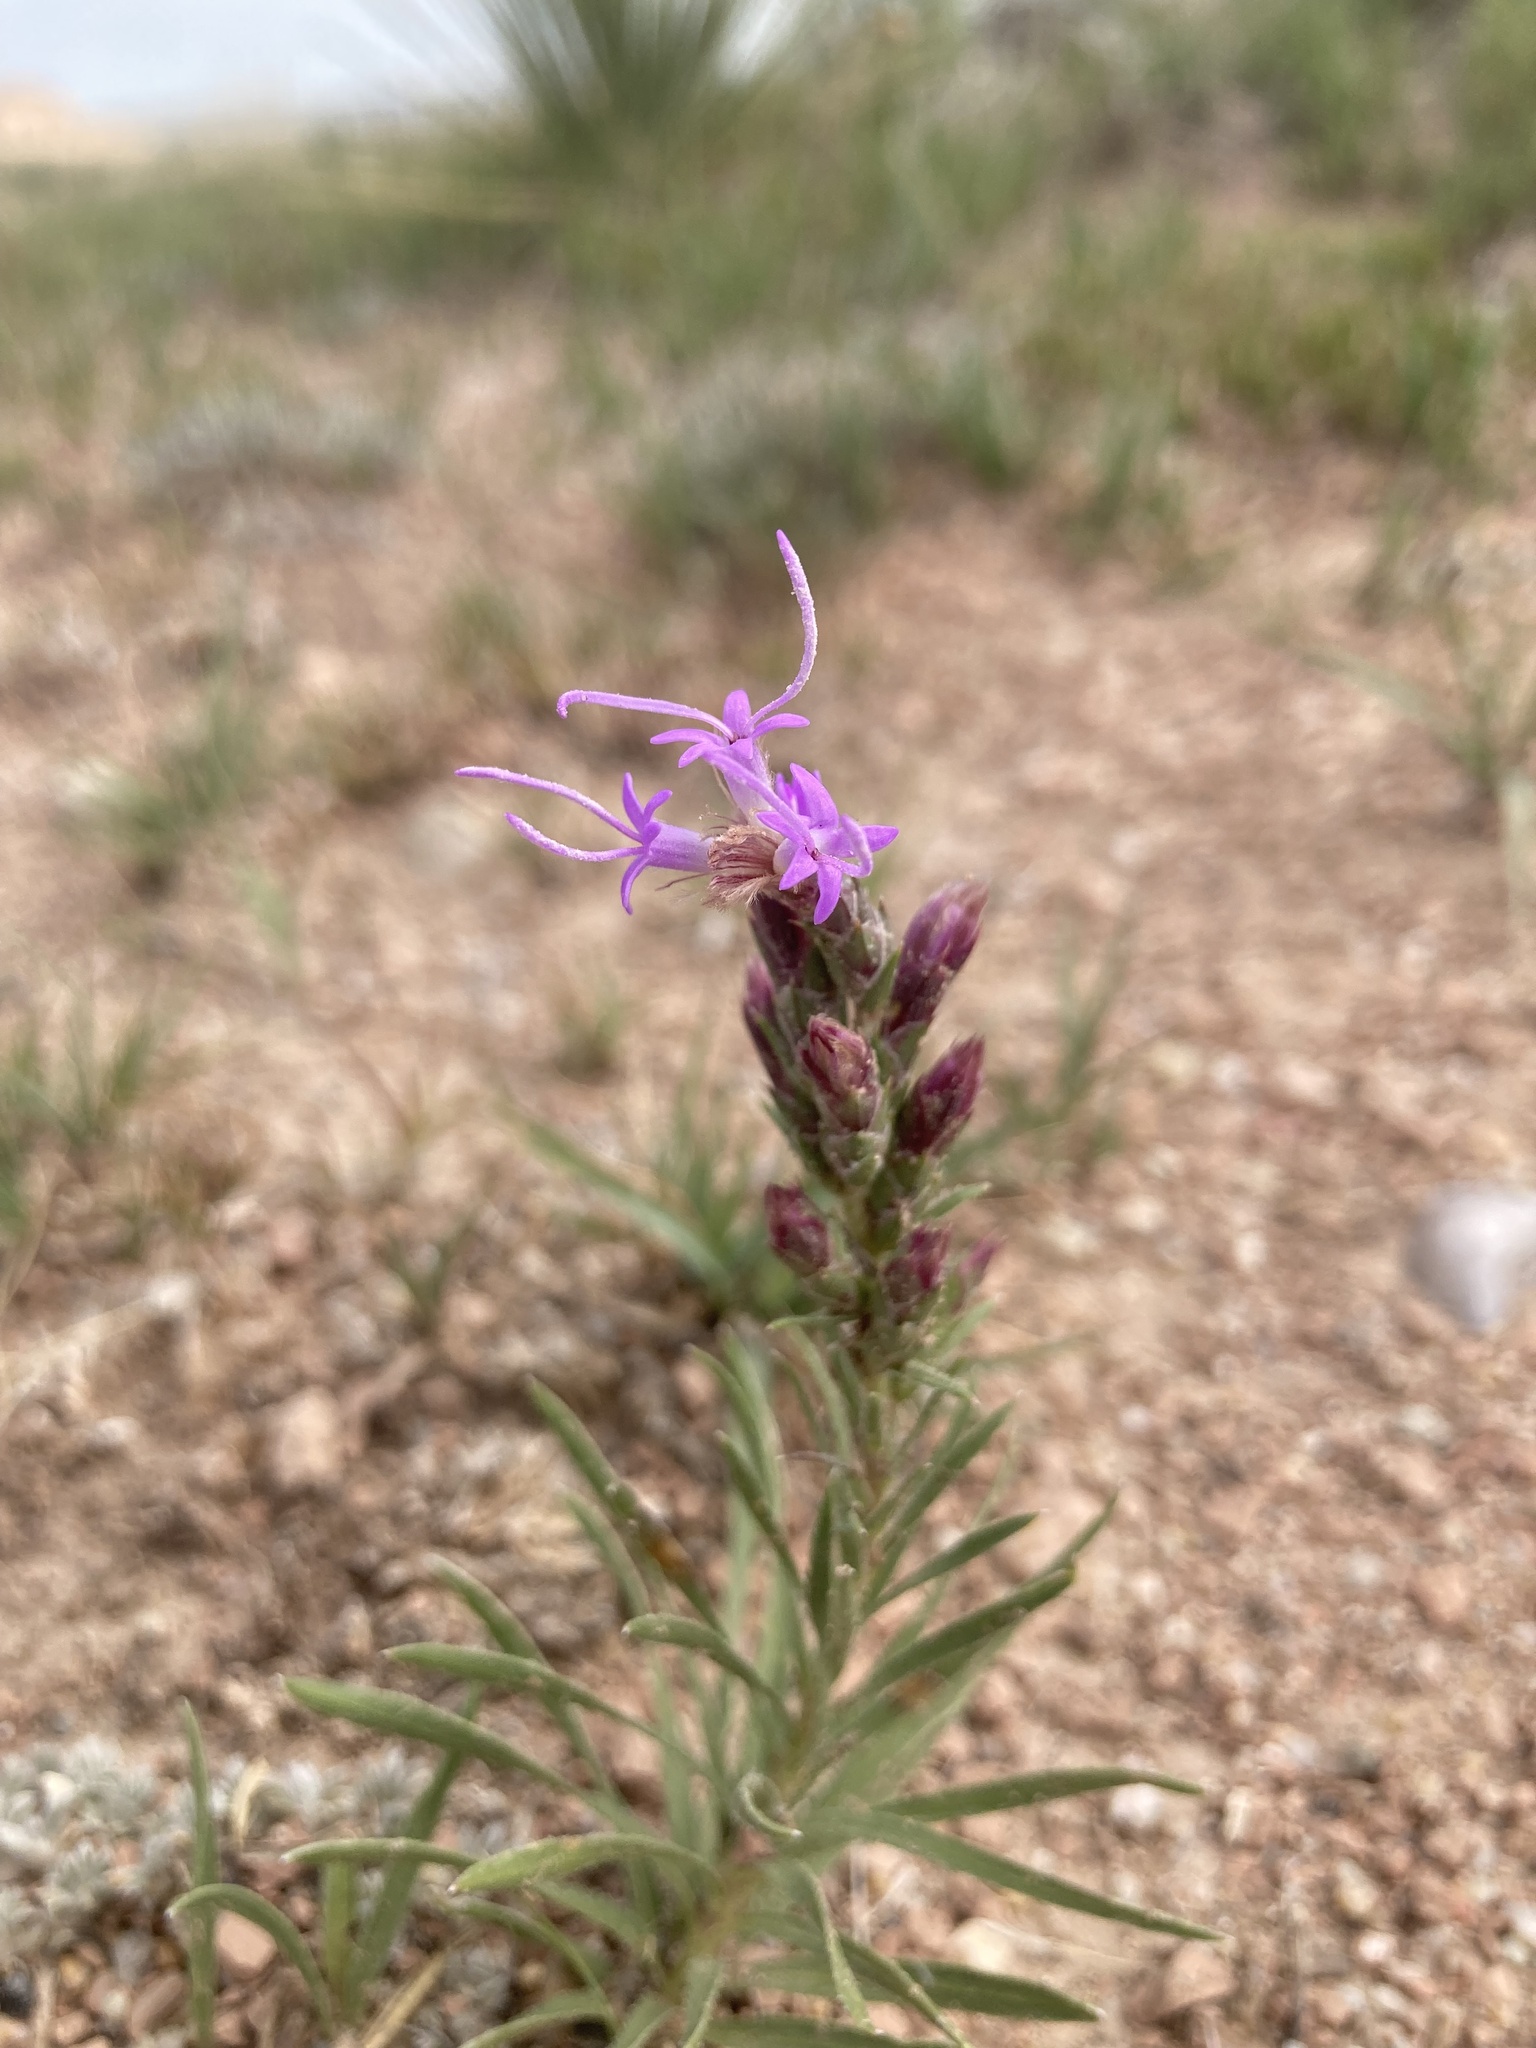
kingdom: Plantae
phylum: Tracheophyta
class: Magnoliopsida
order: Asterales
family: Asteraceae
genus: Liatris
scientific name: Liatris punctata
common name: Dotted gayfeather
